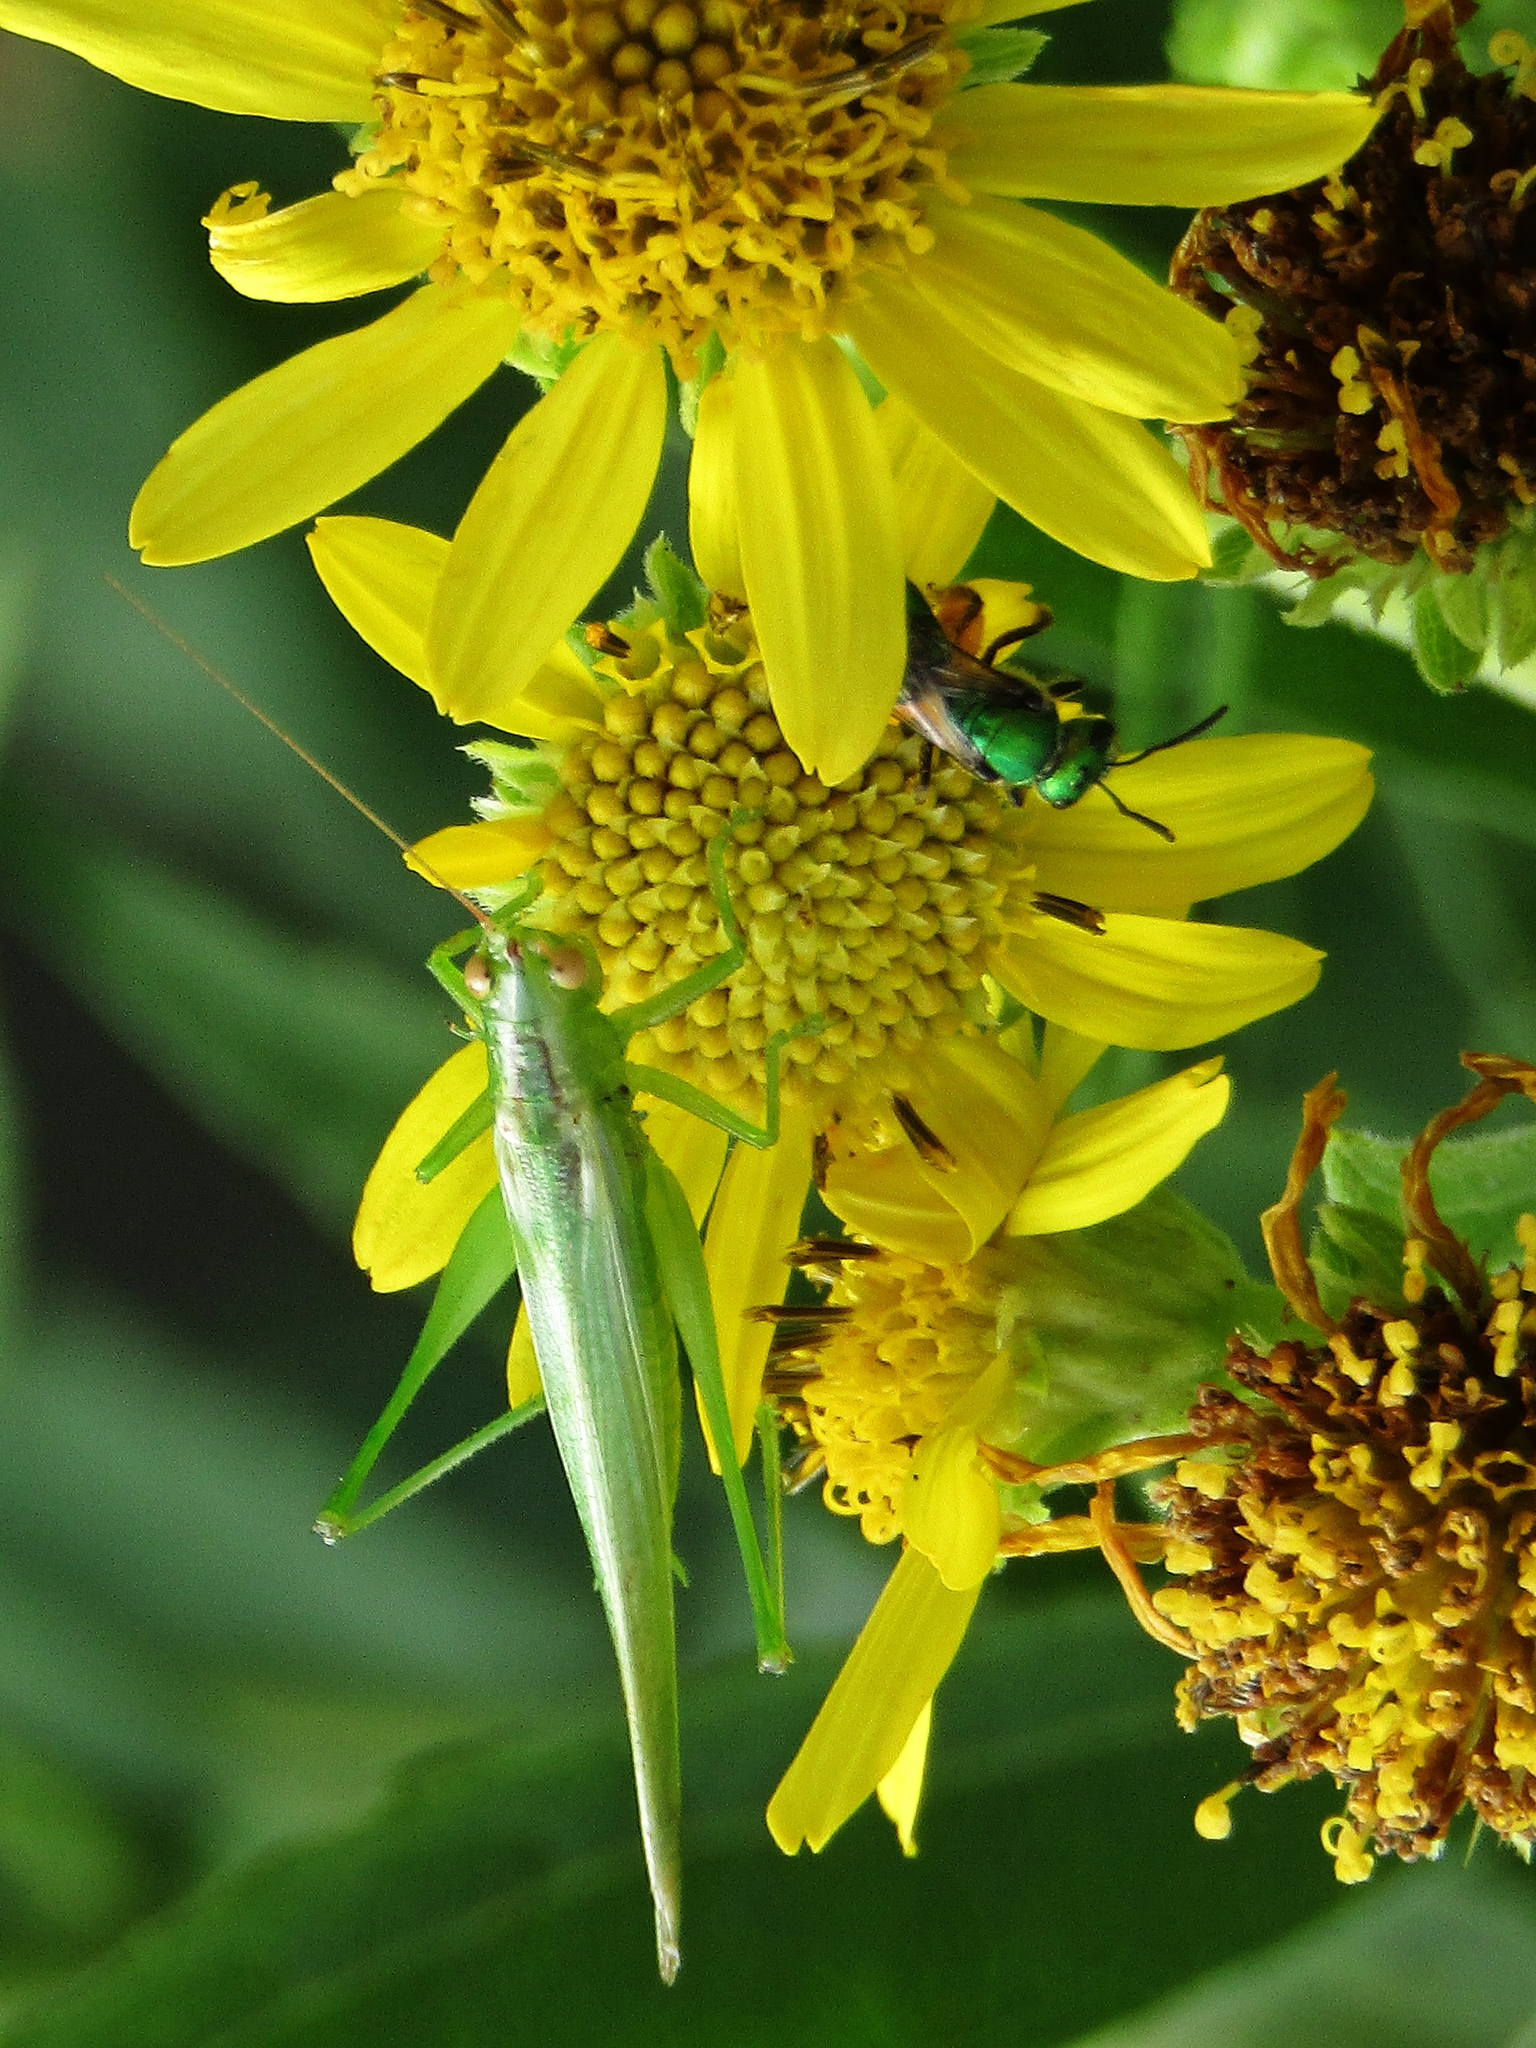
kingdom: Animalia
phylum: Arthropoda
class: Insecta
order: Orthoptera
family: Tettigoniidae
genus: Conocephalus
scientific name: Conocephalus longipes
